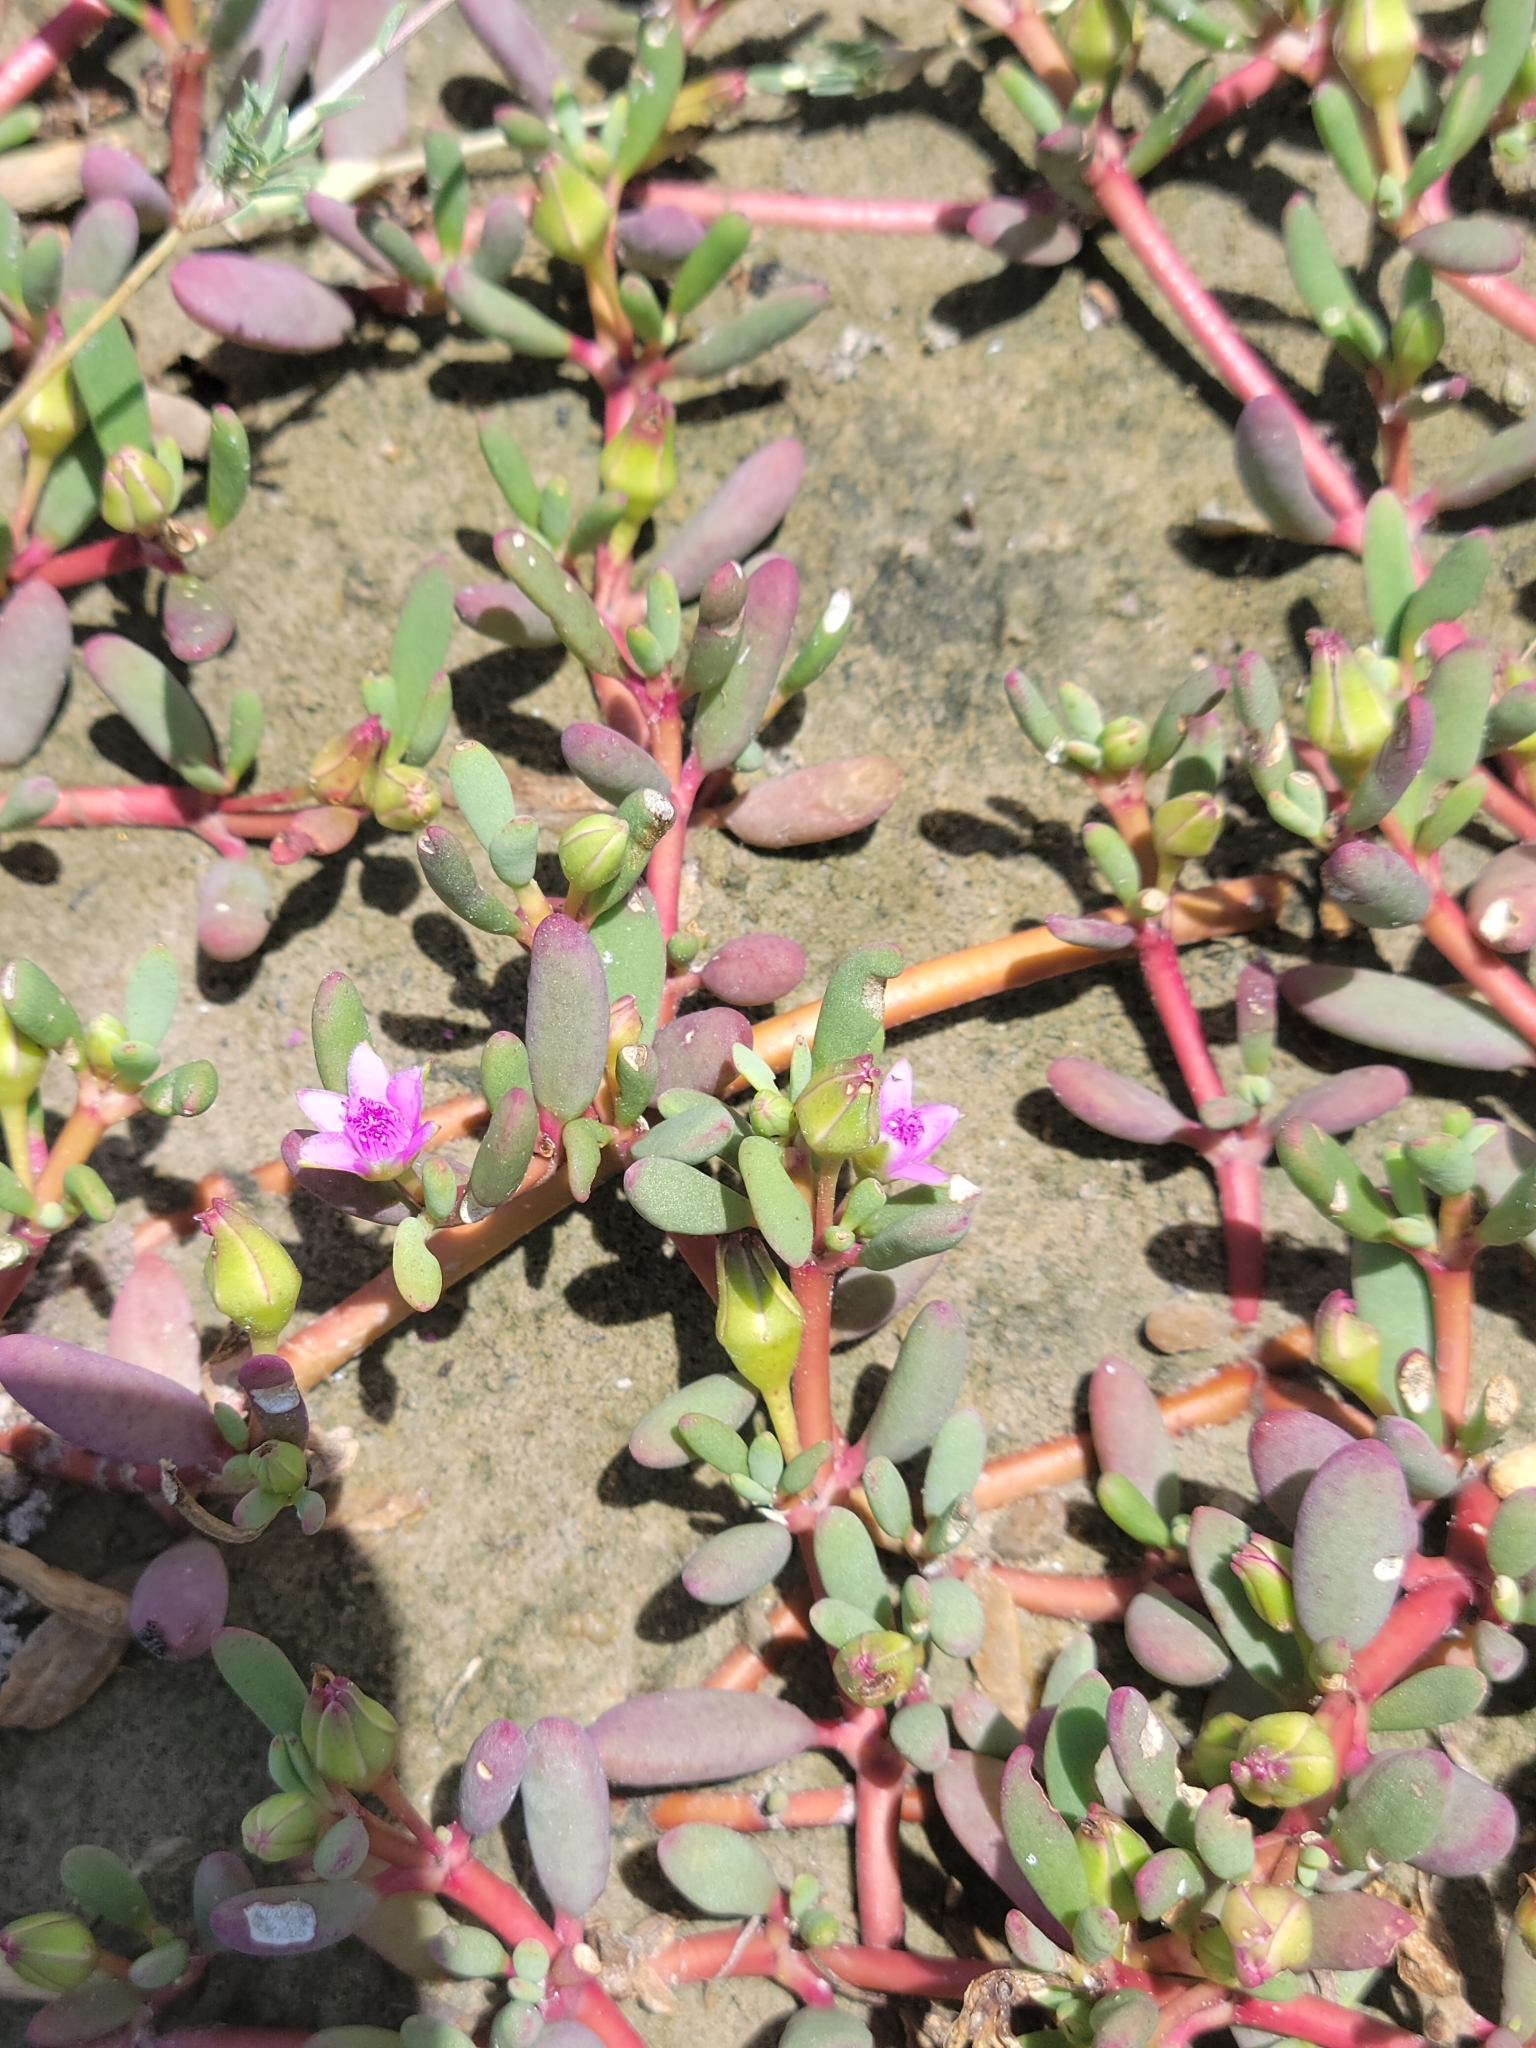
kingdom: Plantae
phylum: Tracheophyta
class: Magnoliopsida
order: Caryophyllales
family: Aizoaceae
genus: Sesuvium
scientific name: Sesuvium portulacastrum
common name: Sea-purslane
